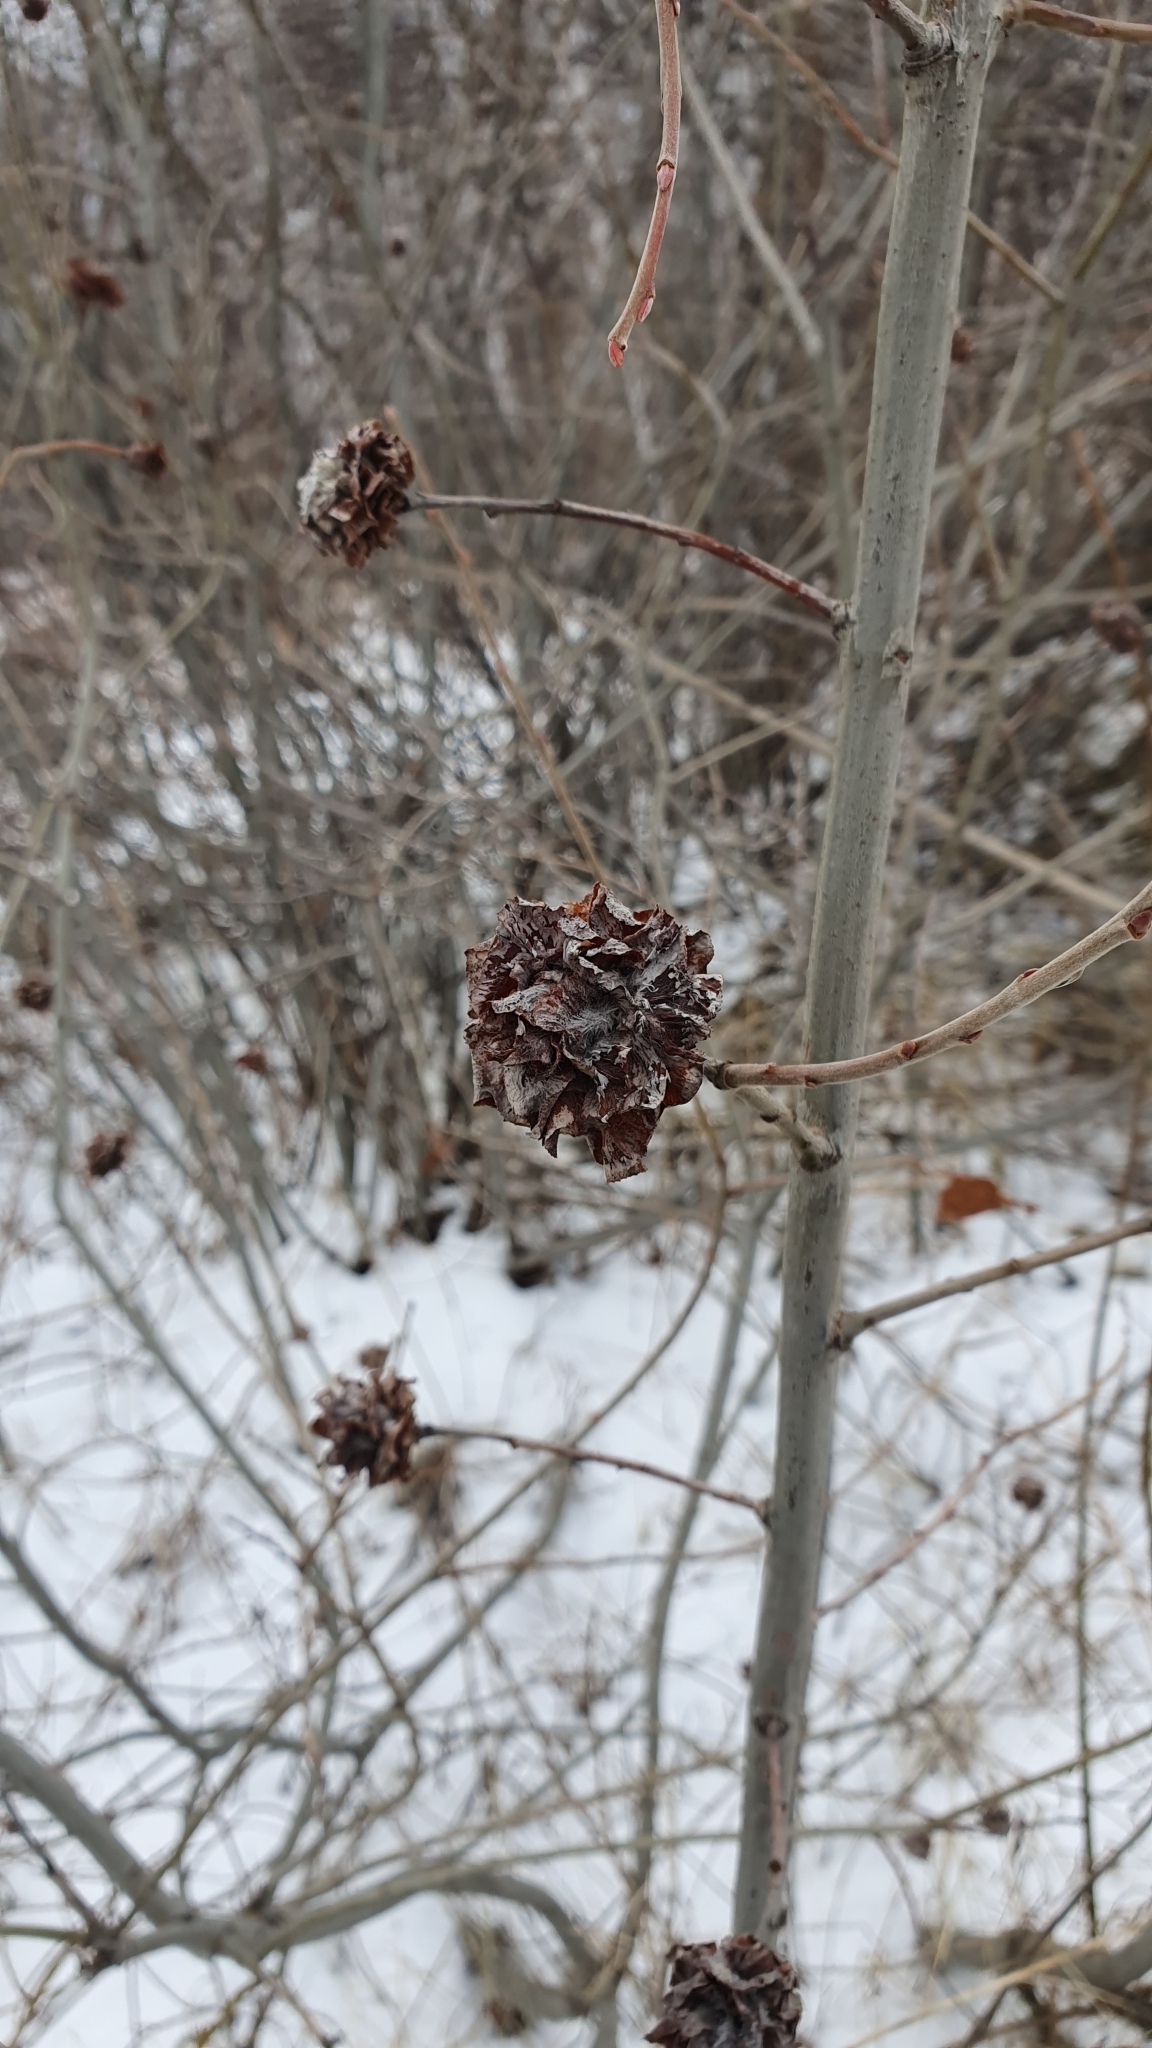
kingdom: Animalia
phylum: Arthropoda
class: Insecta
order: Diptera
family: Cecidomyiidae
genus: Rabdophaga
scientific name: Rabdophaga rosaria
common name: Willow rose gall midge
